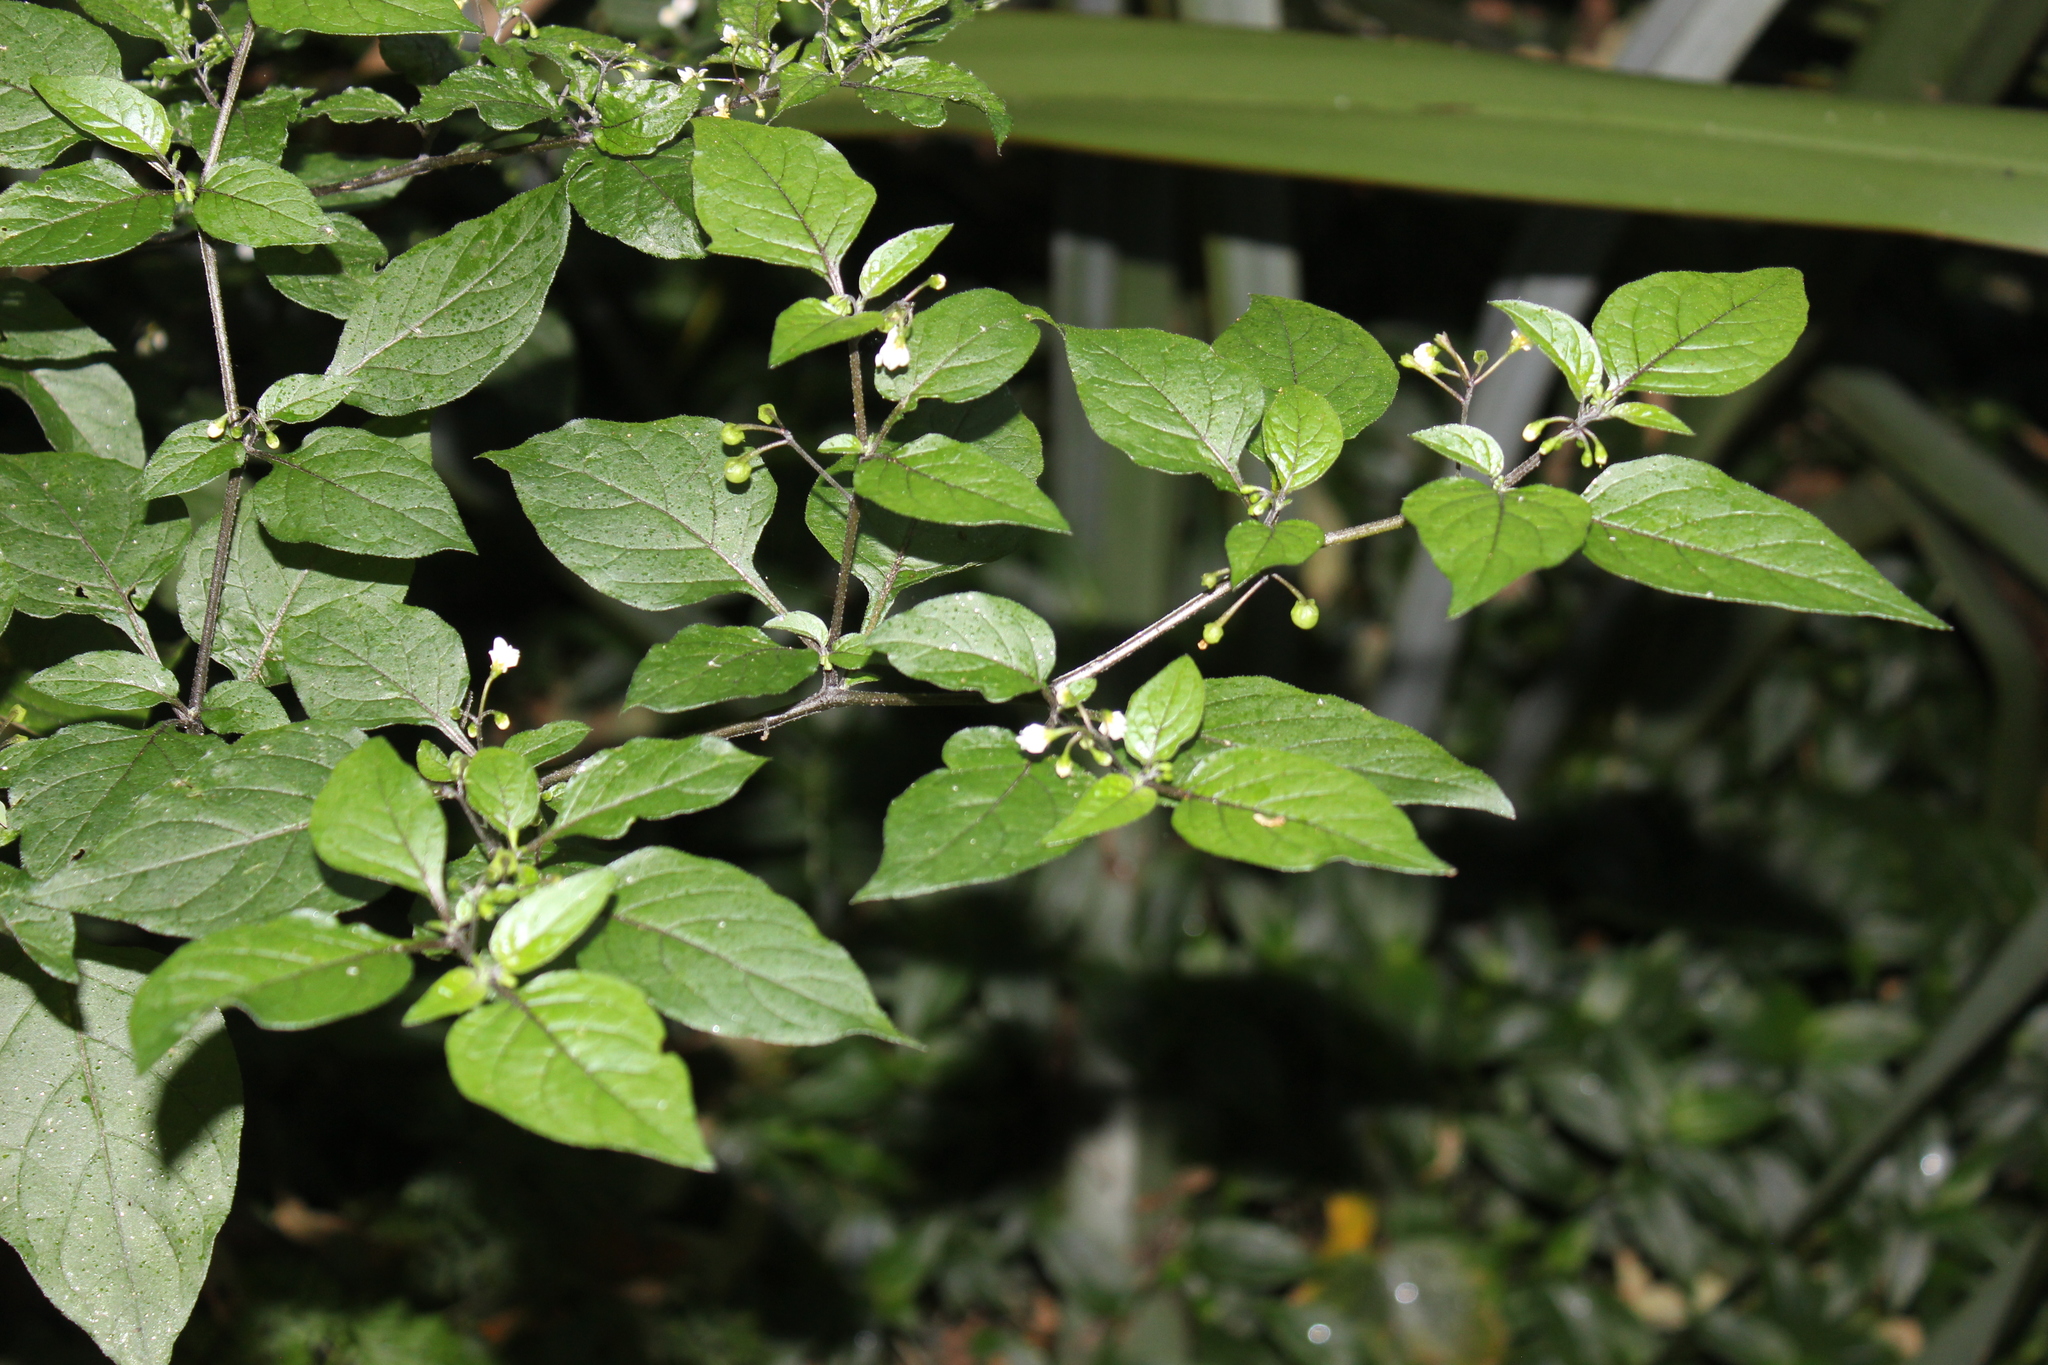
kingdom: Plantae
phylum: Tracheophyta
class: Magnoliopsida
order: Solanales
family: Solanaceae
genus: Solanum
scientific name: Solanum nigrum
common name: Black nightshade
